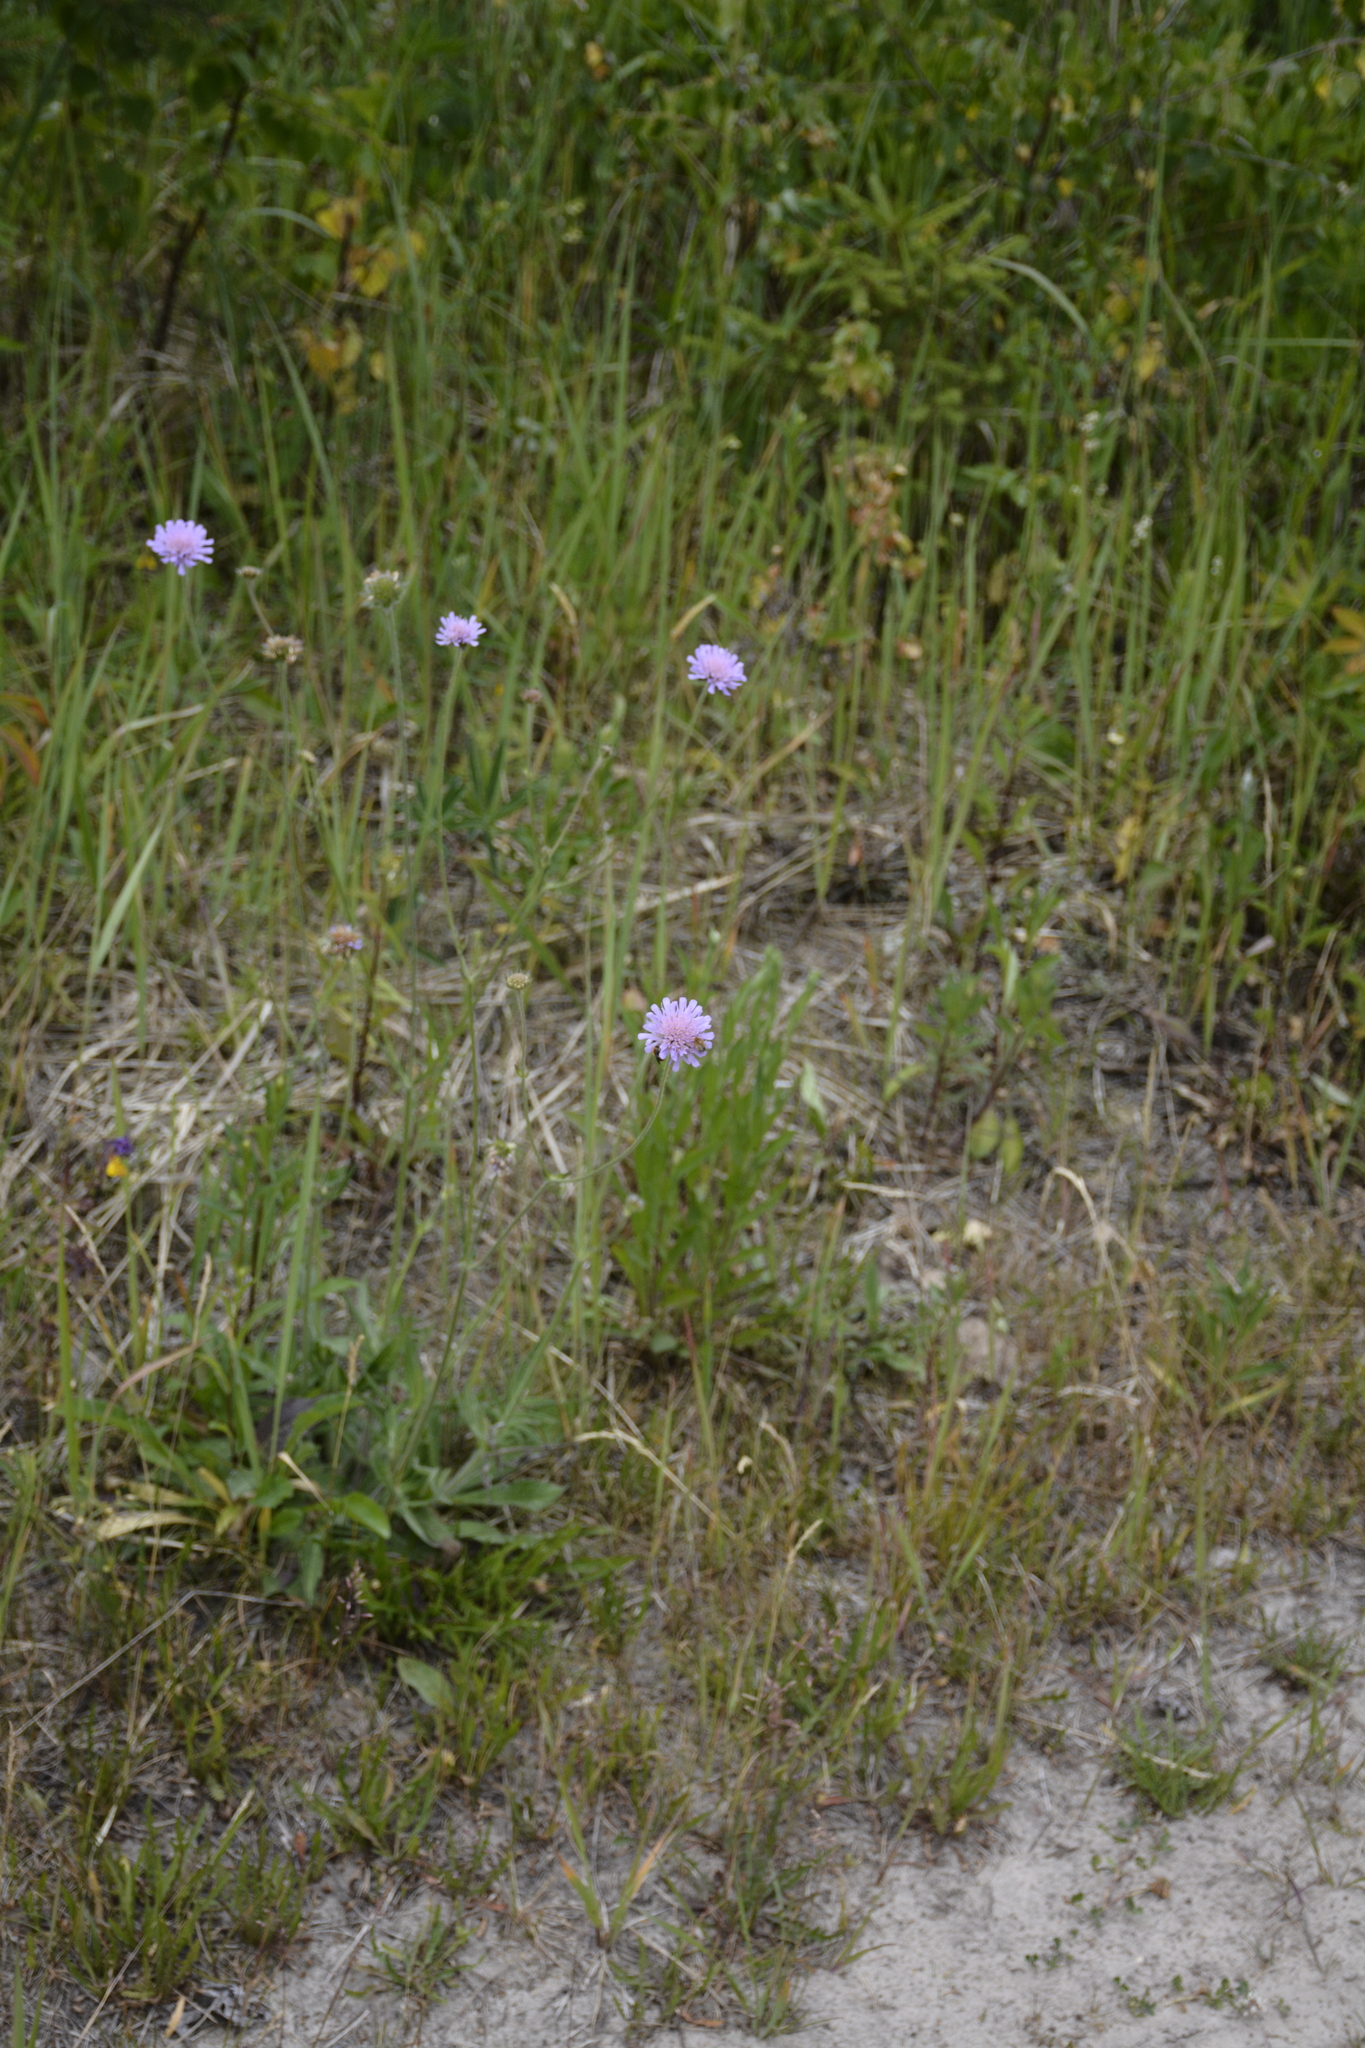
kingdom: Plantae
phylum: Tracheophyta
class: Magnoliopsida
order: Dipsacales
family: Caprifoliaceae
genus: Knautia
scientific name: Knautia arvensis
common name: Field scabiosa
